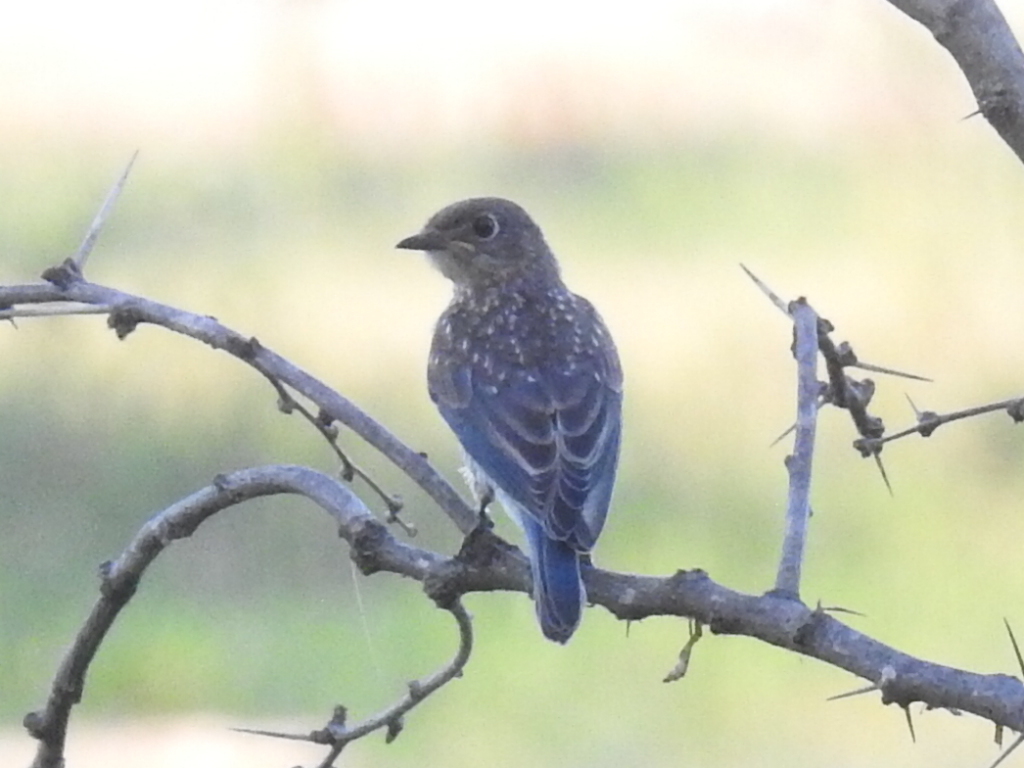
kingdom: Animalia
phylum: Chordata
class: Aves
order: Passeriformes
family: Turdidae
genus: Sialia
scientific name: Sialia sialis
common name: Eastern bluebird
